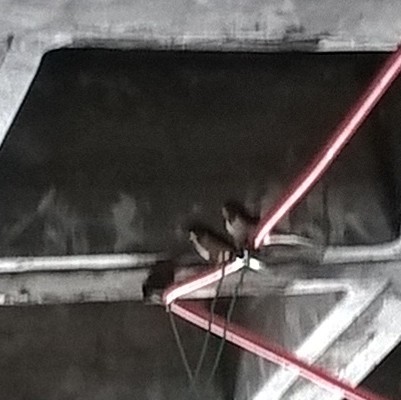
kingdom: Animalia
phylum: Chordata
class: Aves
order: Passeriformes
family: Hirundinidae
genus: Hirundo
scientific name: Hirundo rustica
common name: Barn swallow
